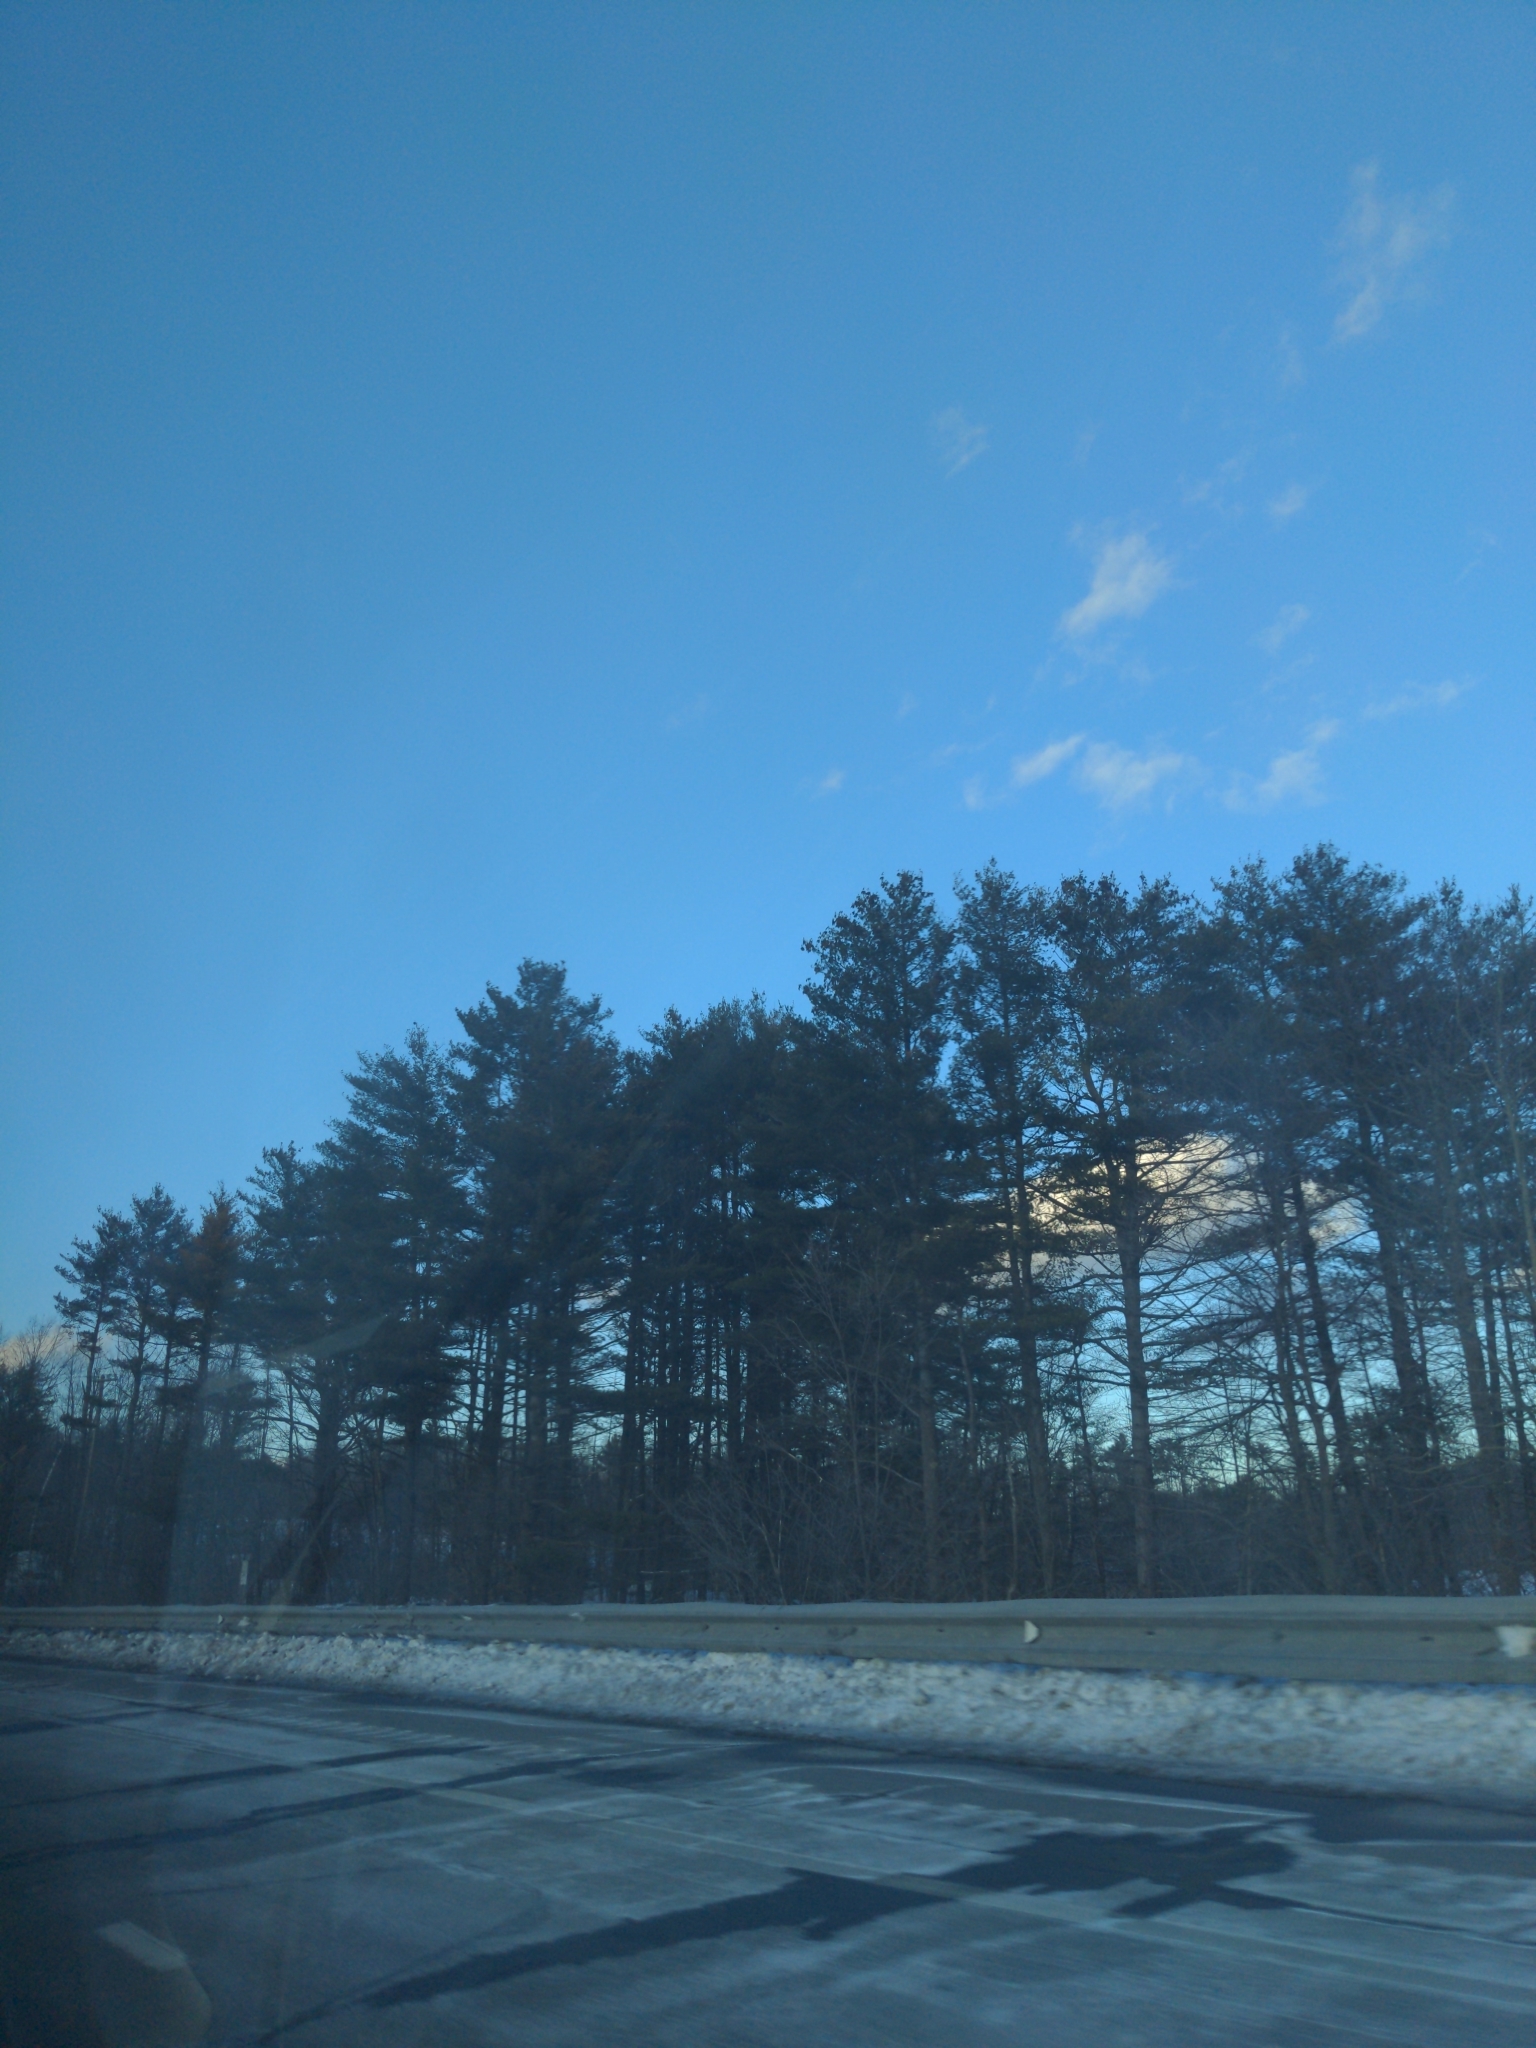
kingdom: Plantae
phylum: Tracheophyta
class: Pinopsida
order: Pinales
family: Pinaceae
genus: Pinus
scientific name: Pinus strobus
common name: Weymouth pine
